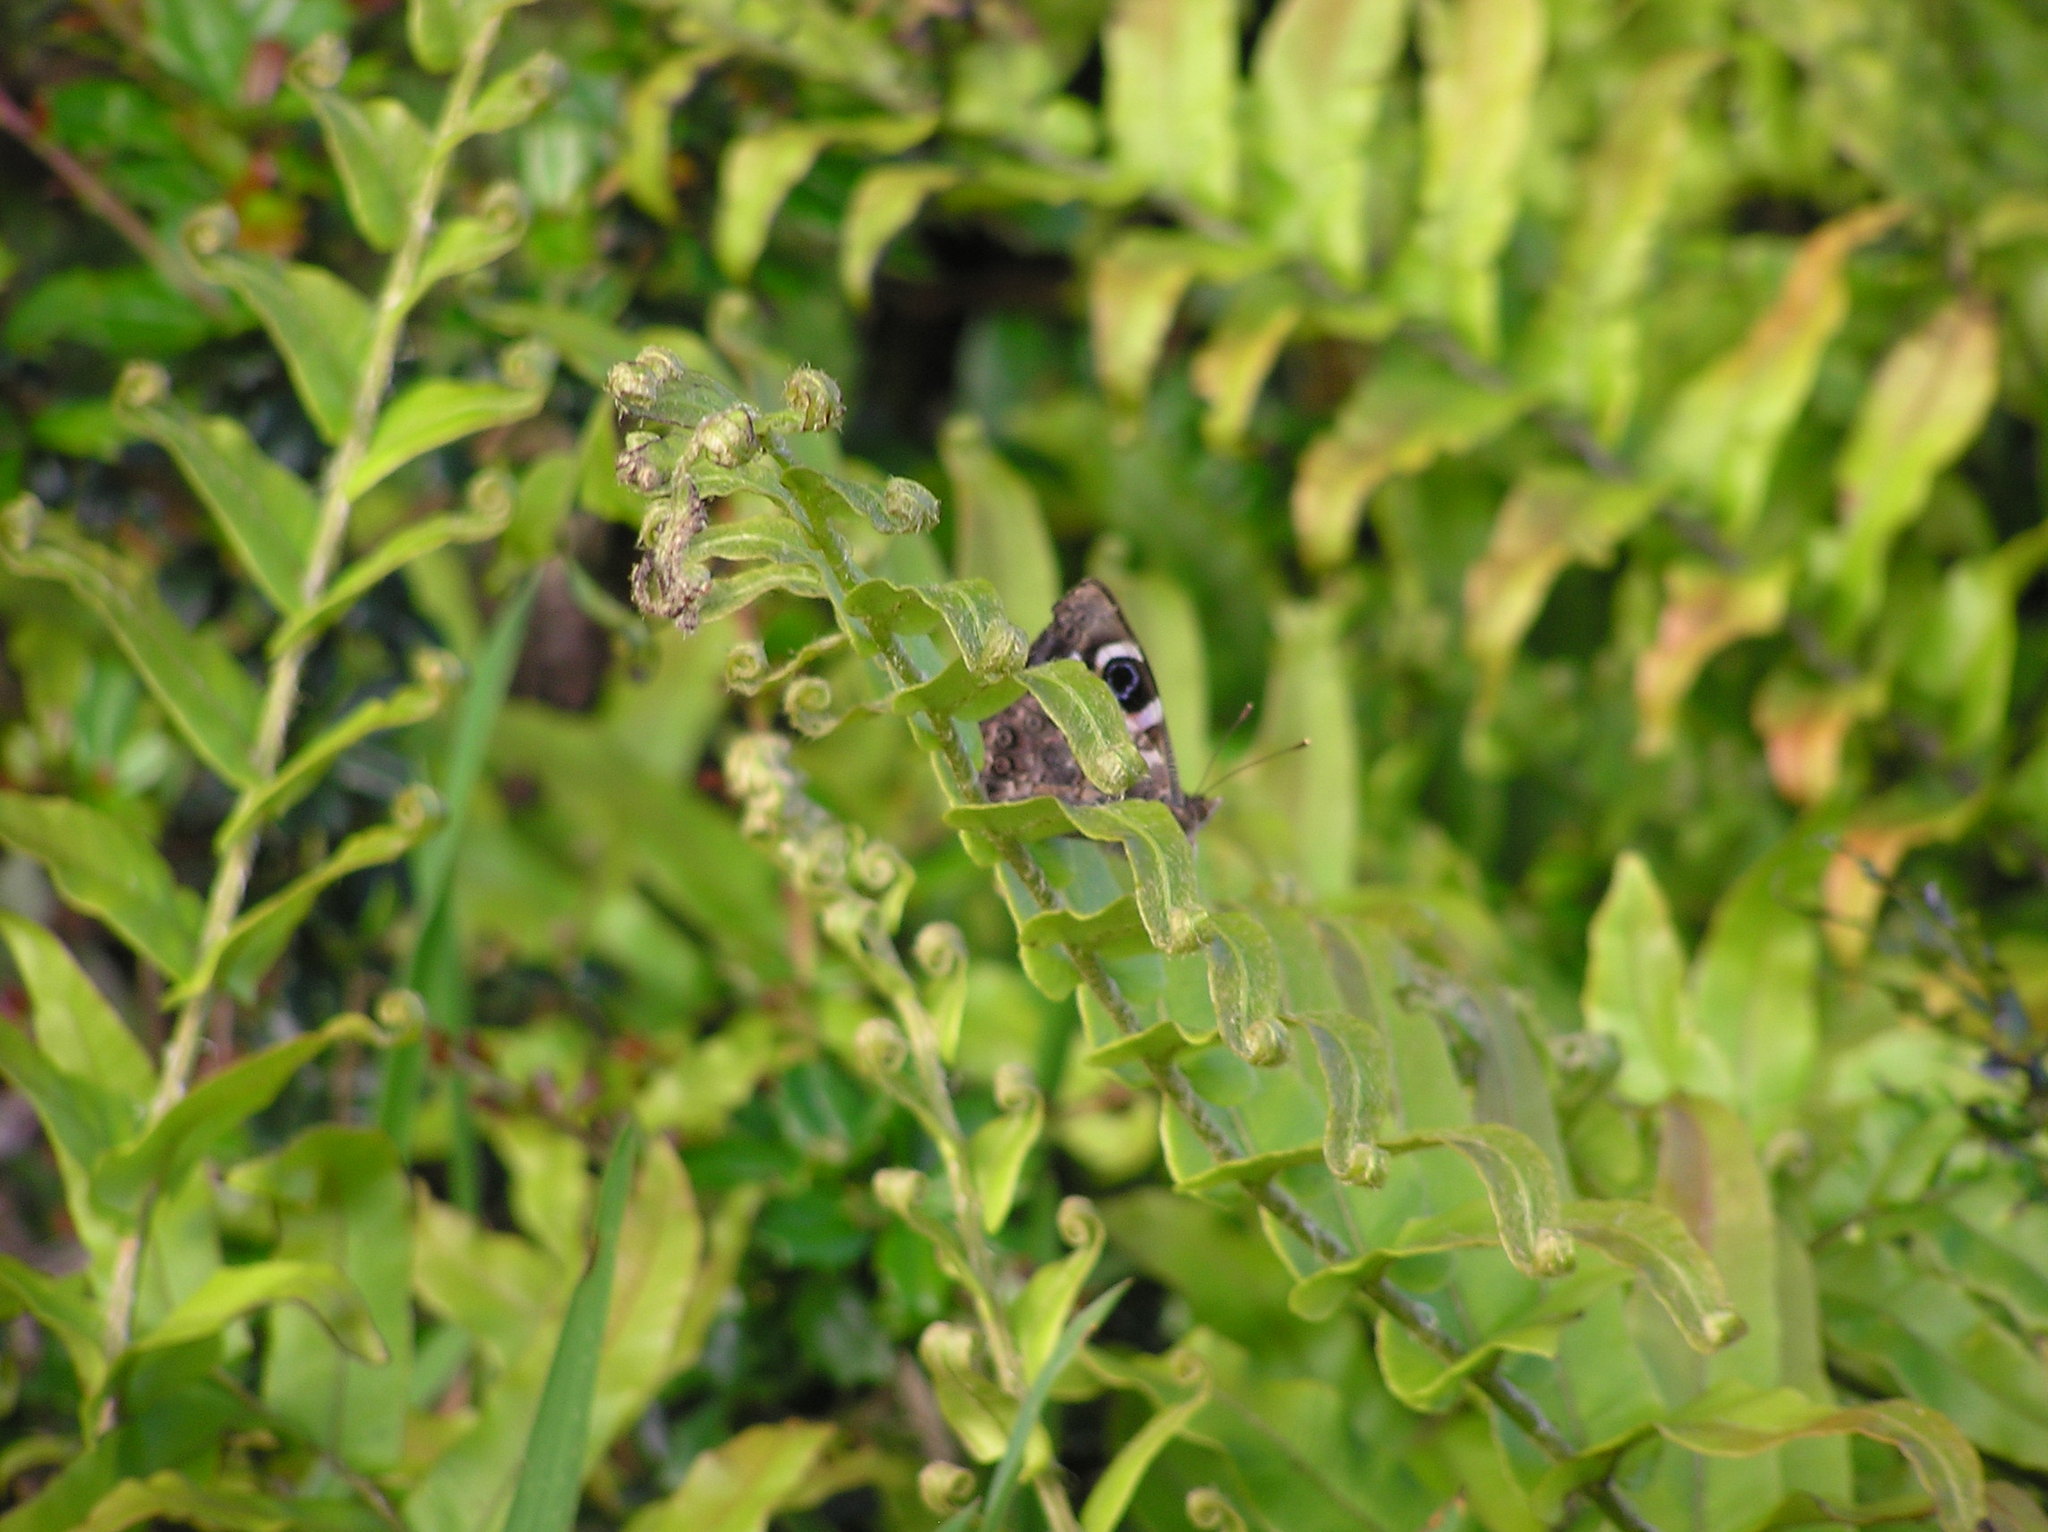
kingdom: Animalia
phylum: Arthropoda
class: Insecta
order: Lepidoptera
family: Nymphalidae
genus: Vanessa
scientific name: Vanessa gonerilla
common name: New zealand red admiral
